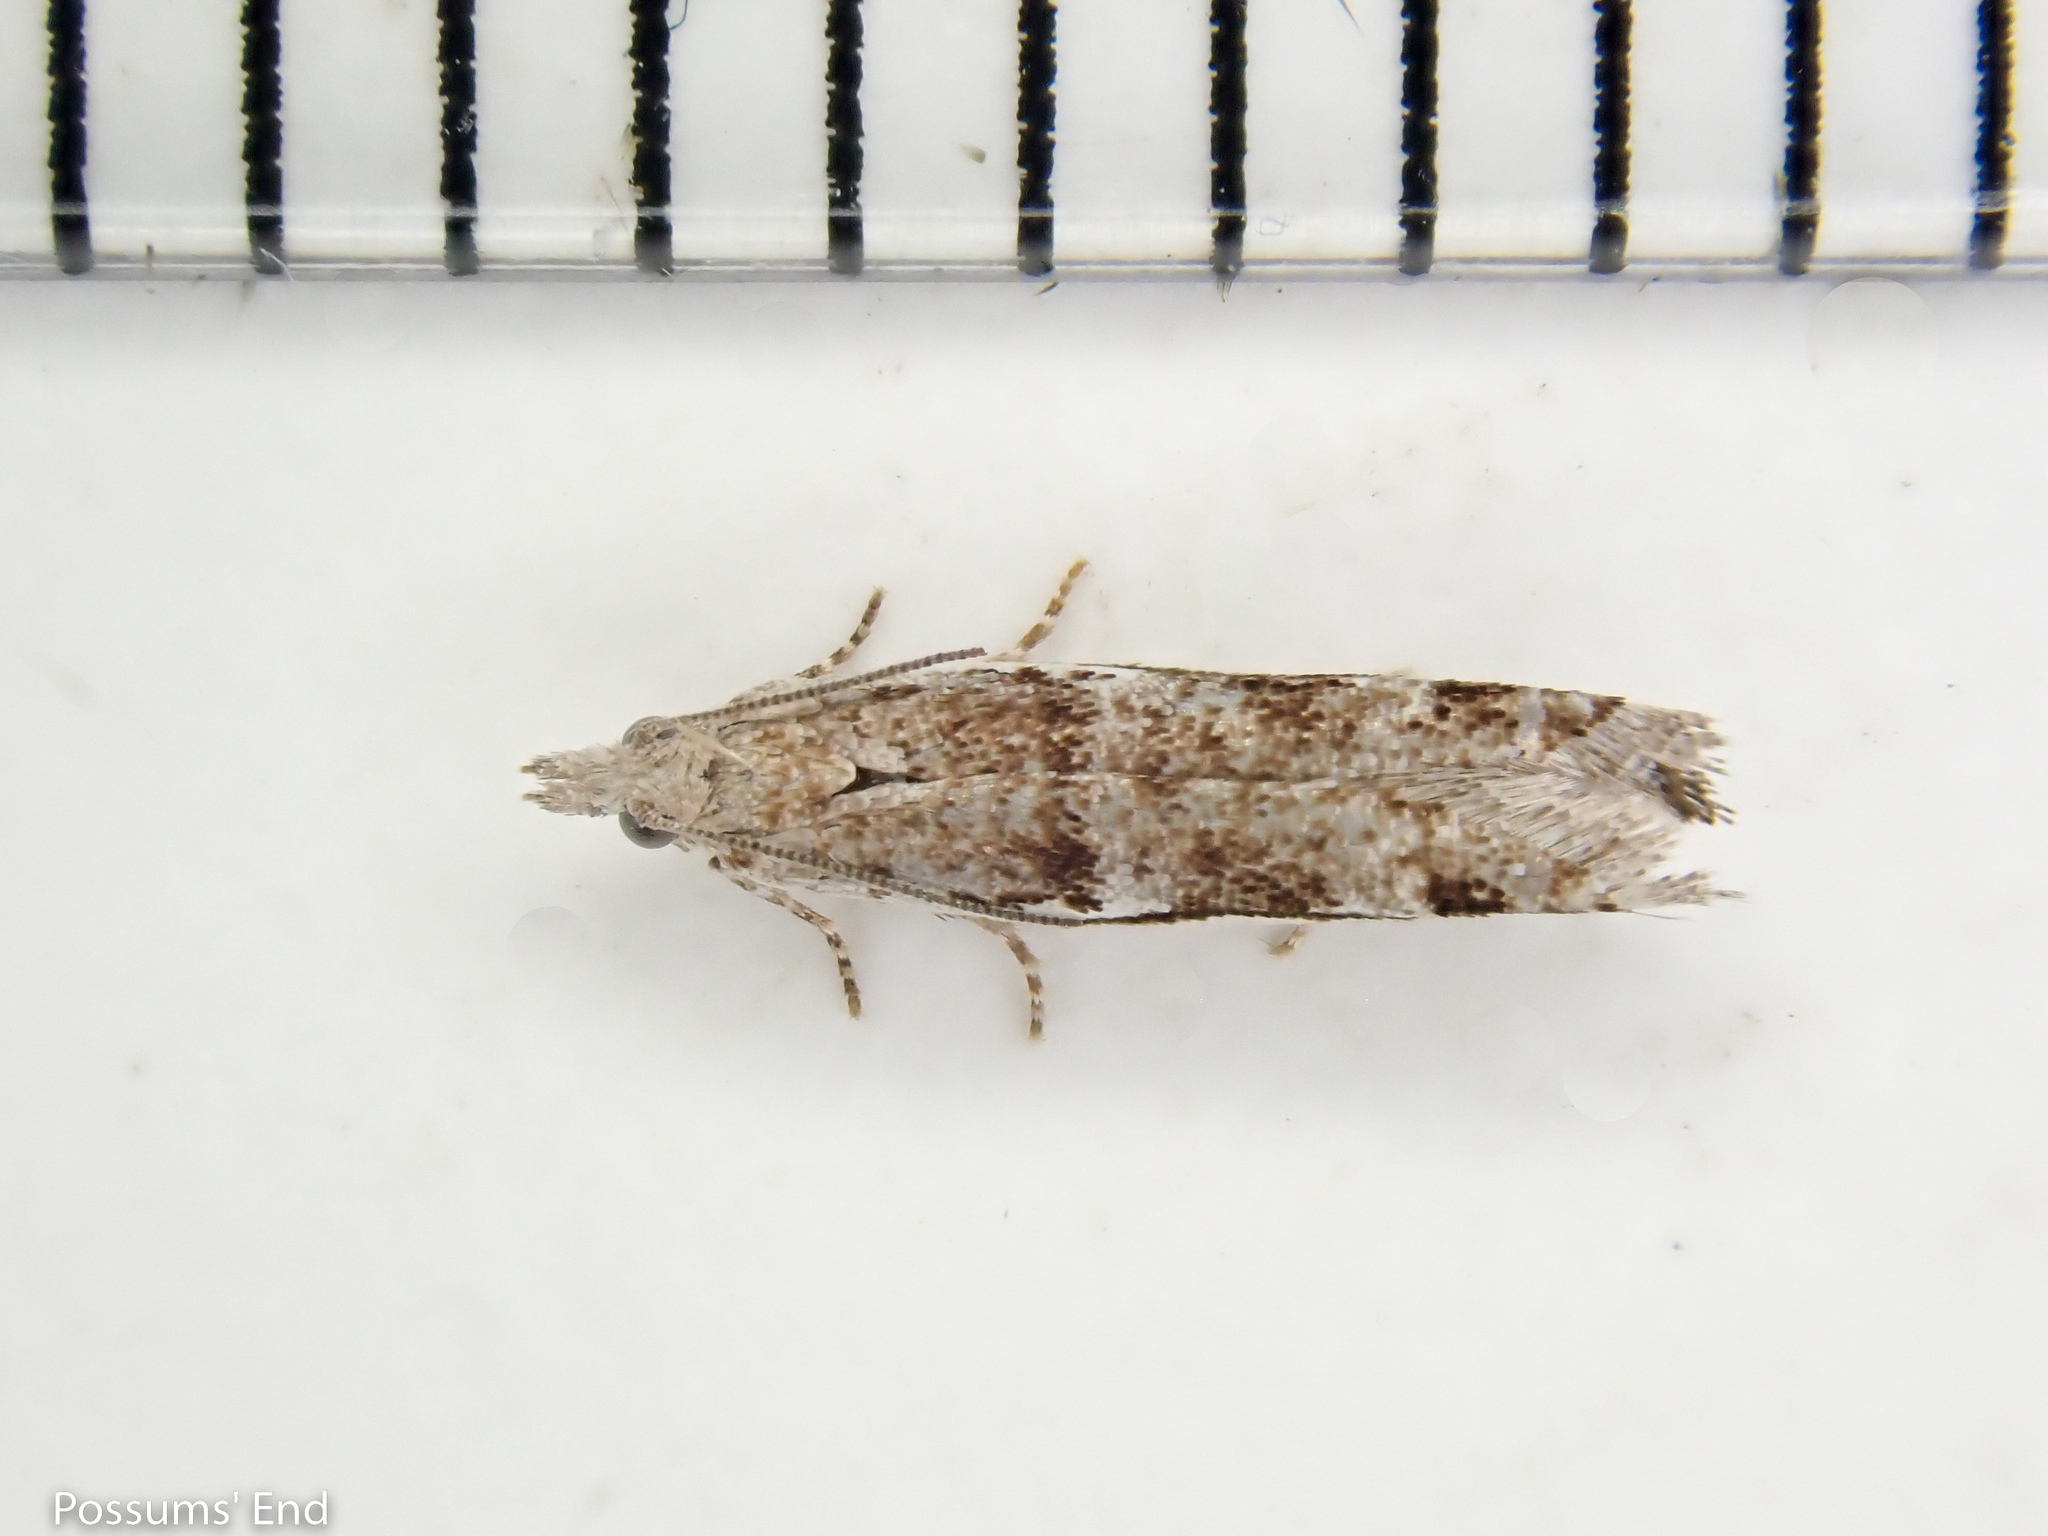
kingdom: Animalia
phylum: Arthropoda
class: Insecta
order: Lepidoptera
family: Tortricidae
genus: Holocola
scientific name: Holocola zopherana
